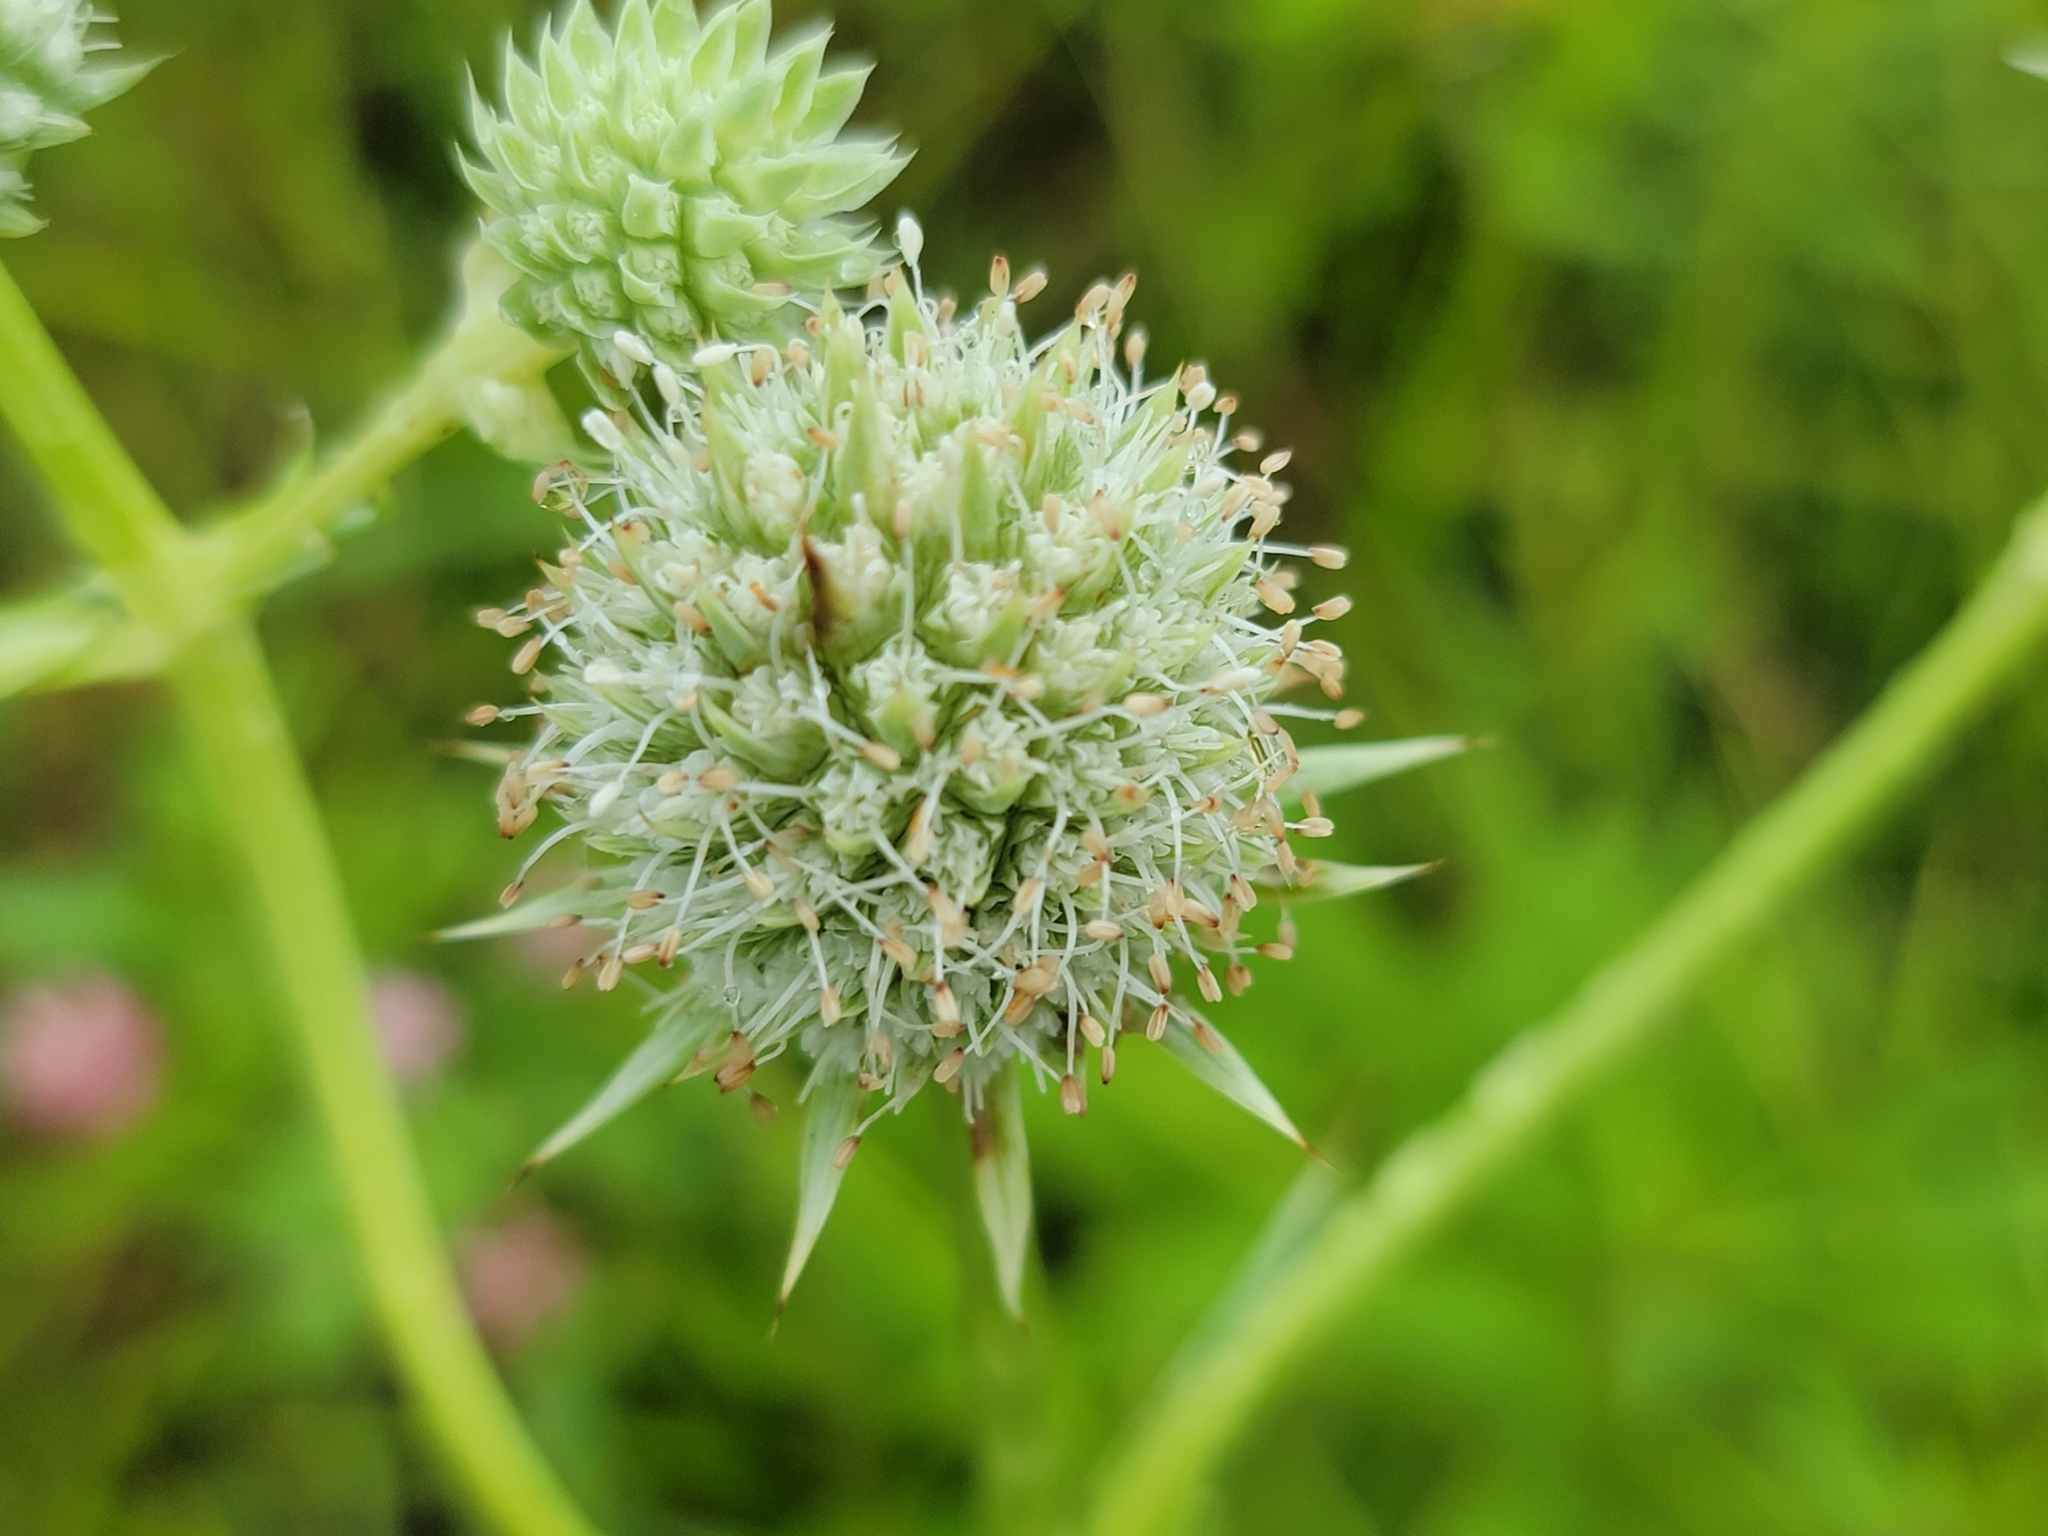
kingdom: Plantae
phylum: Tracheophyta
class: Magnoliopsida
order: Apiales
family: Apiaceae
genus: Eryngium
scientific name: Eryngium yuccifolium
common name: Button eryngo
